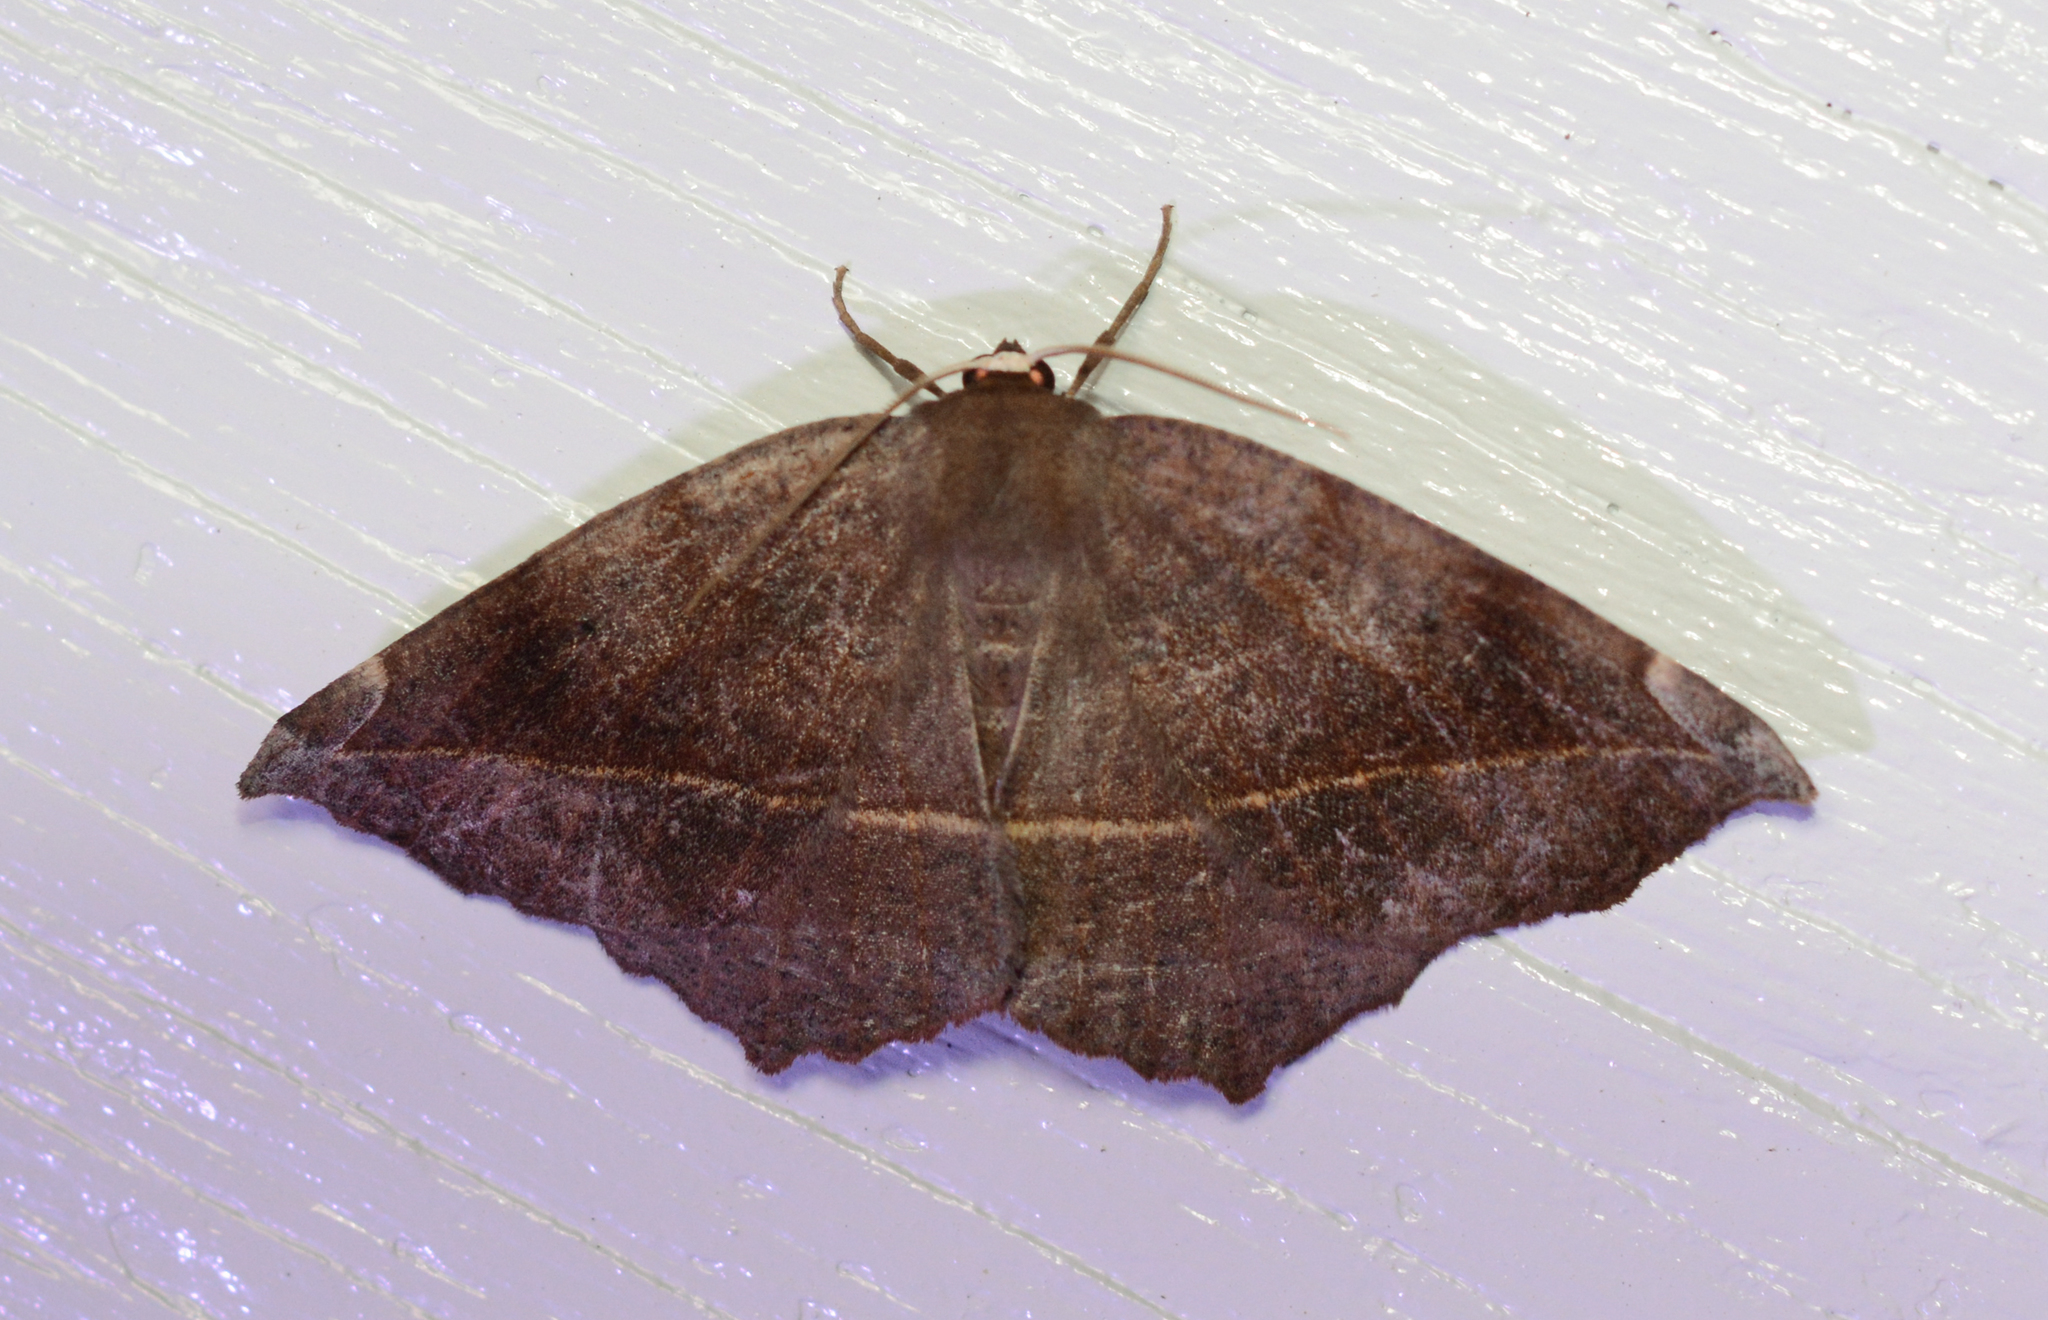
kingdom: Animalia
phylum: Arthropoda
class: Insecta
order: Lepidoptera
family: Geometridae
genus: Eutrapela
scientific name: Eutrapela clemataria
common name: Curved-toothed geometer
